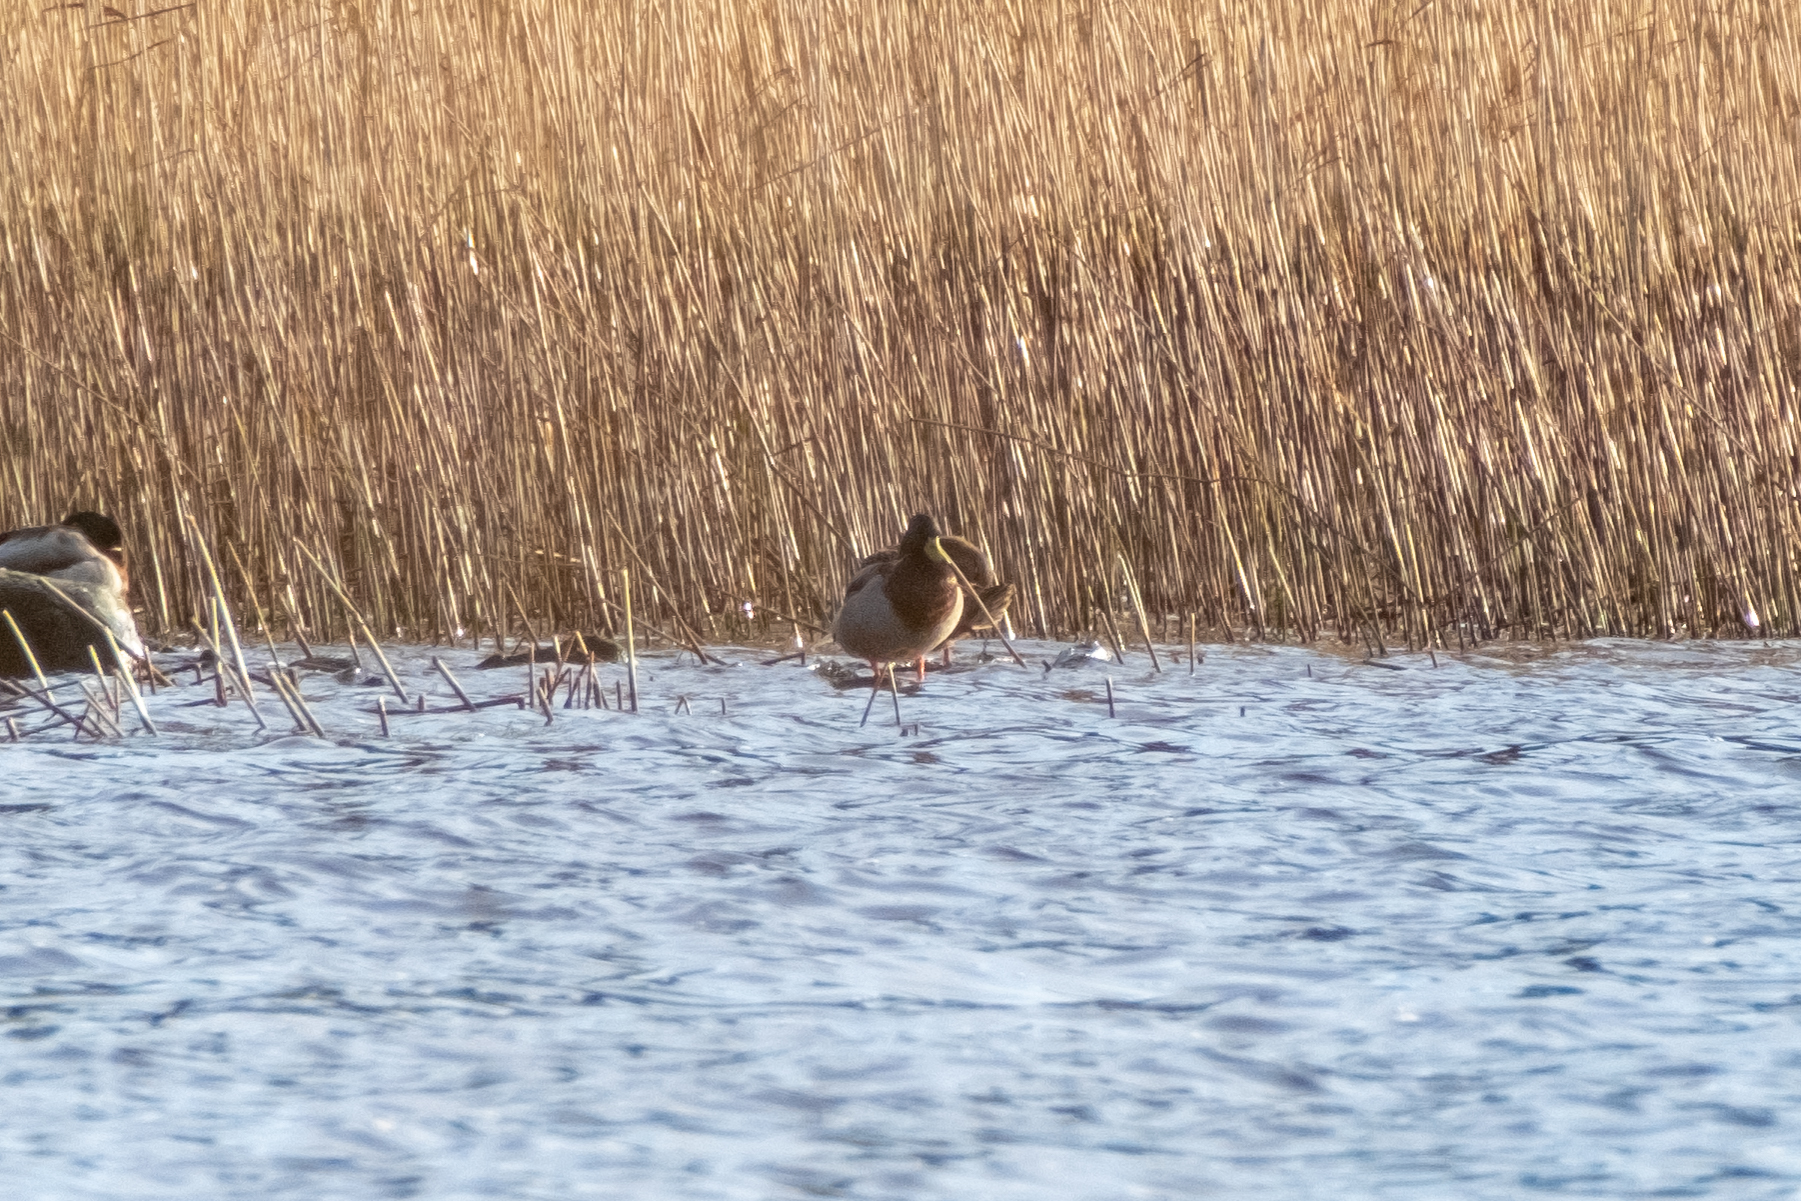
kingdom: Animalia
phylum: Chordata
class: Aves
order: Anseriformes
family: Anatidae
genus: Anas
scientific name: Anas platyrhynchos
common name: Mallard
